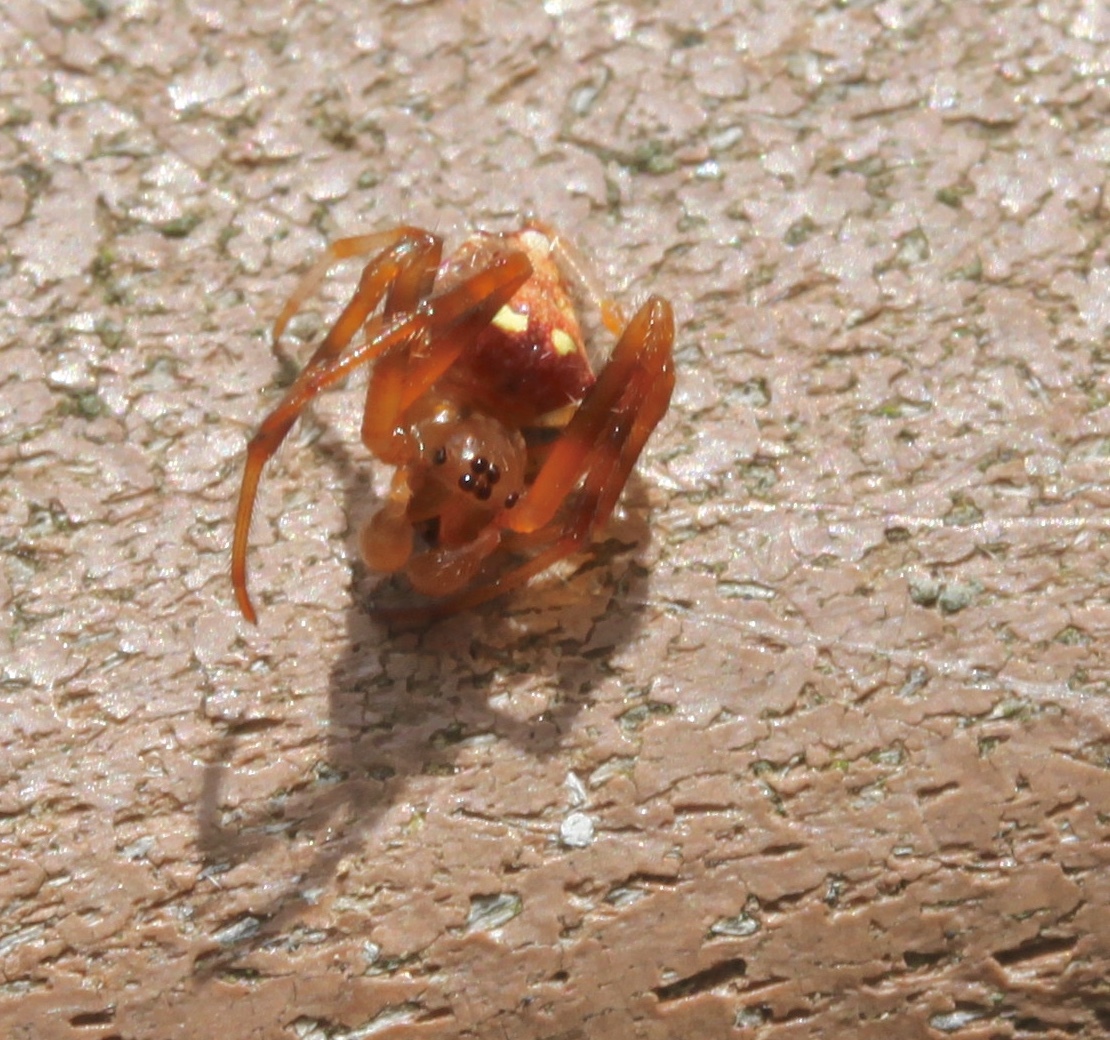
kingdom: Animalia
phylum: Arthropoda
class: Arachnida
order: Araneae
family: Araneidae
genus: Verrucosa
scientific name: Verrucosa arenata
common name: Orb weavers
